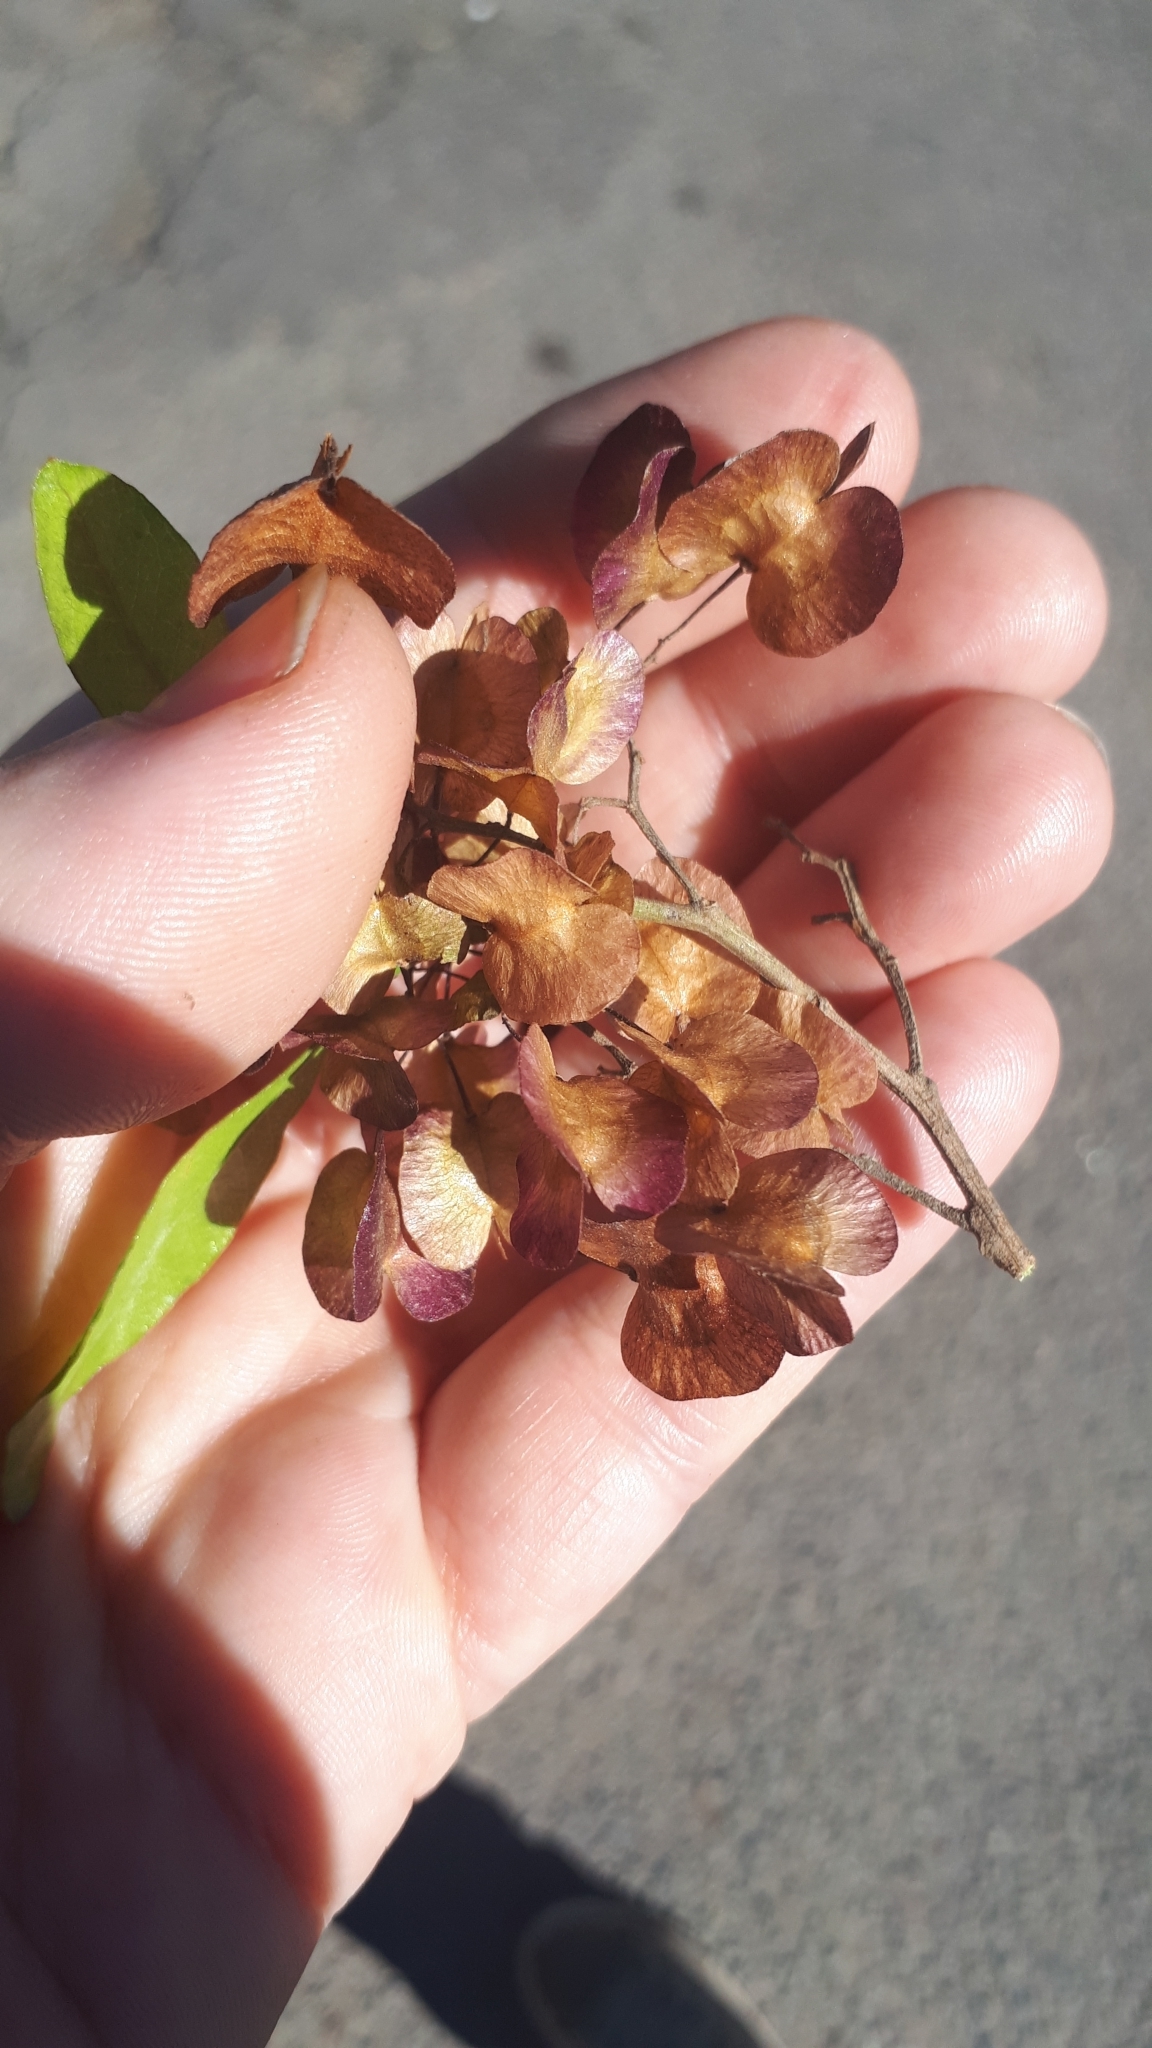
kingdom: Plantae
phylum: Tracheophyta
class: Magnoliopsida
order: Sapindales
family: Sapindaceae
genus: Dodonaea
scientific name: Dodonaea viscosa
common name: Hopbush
